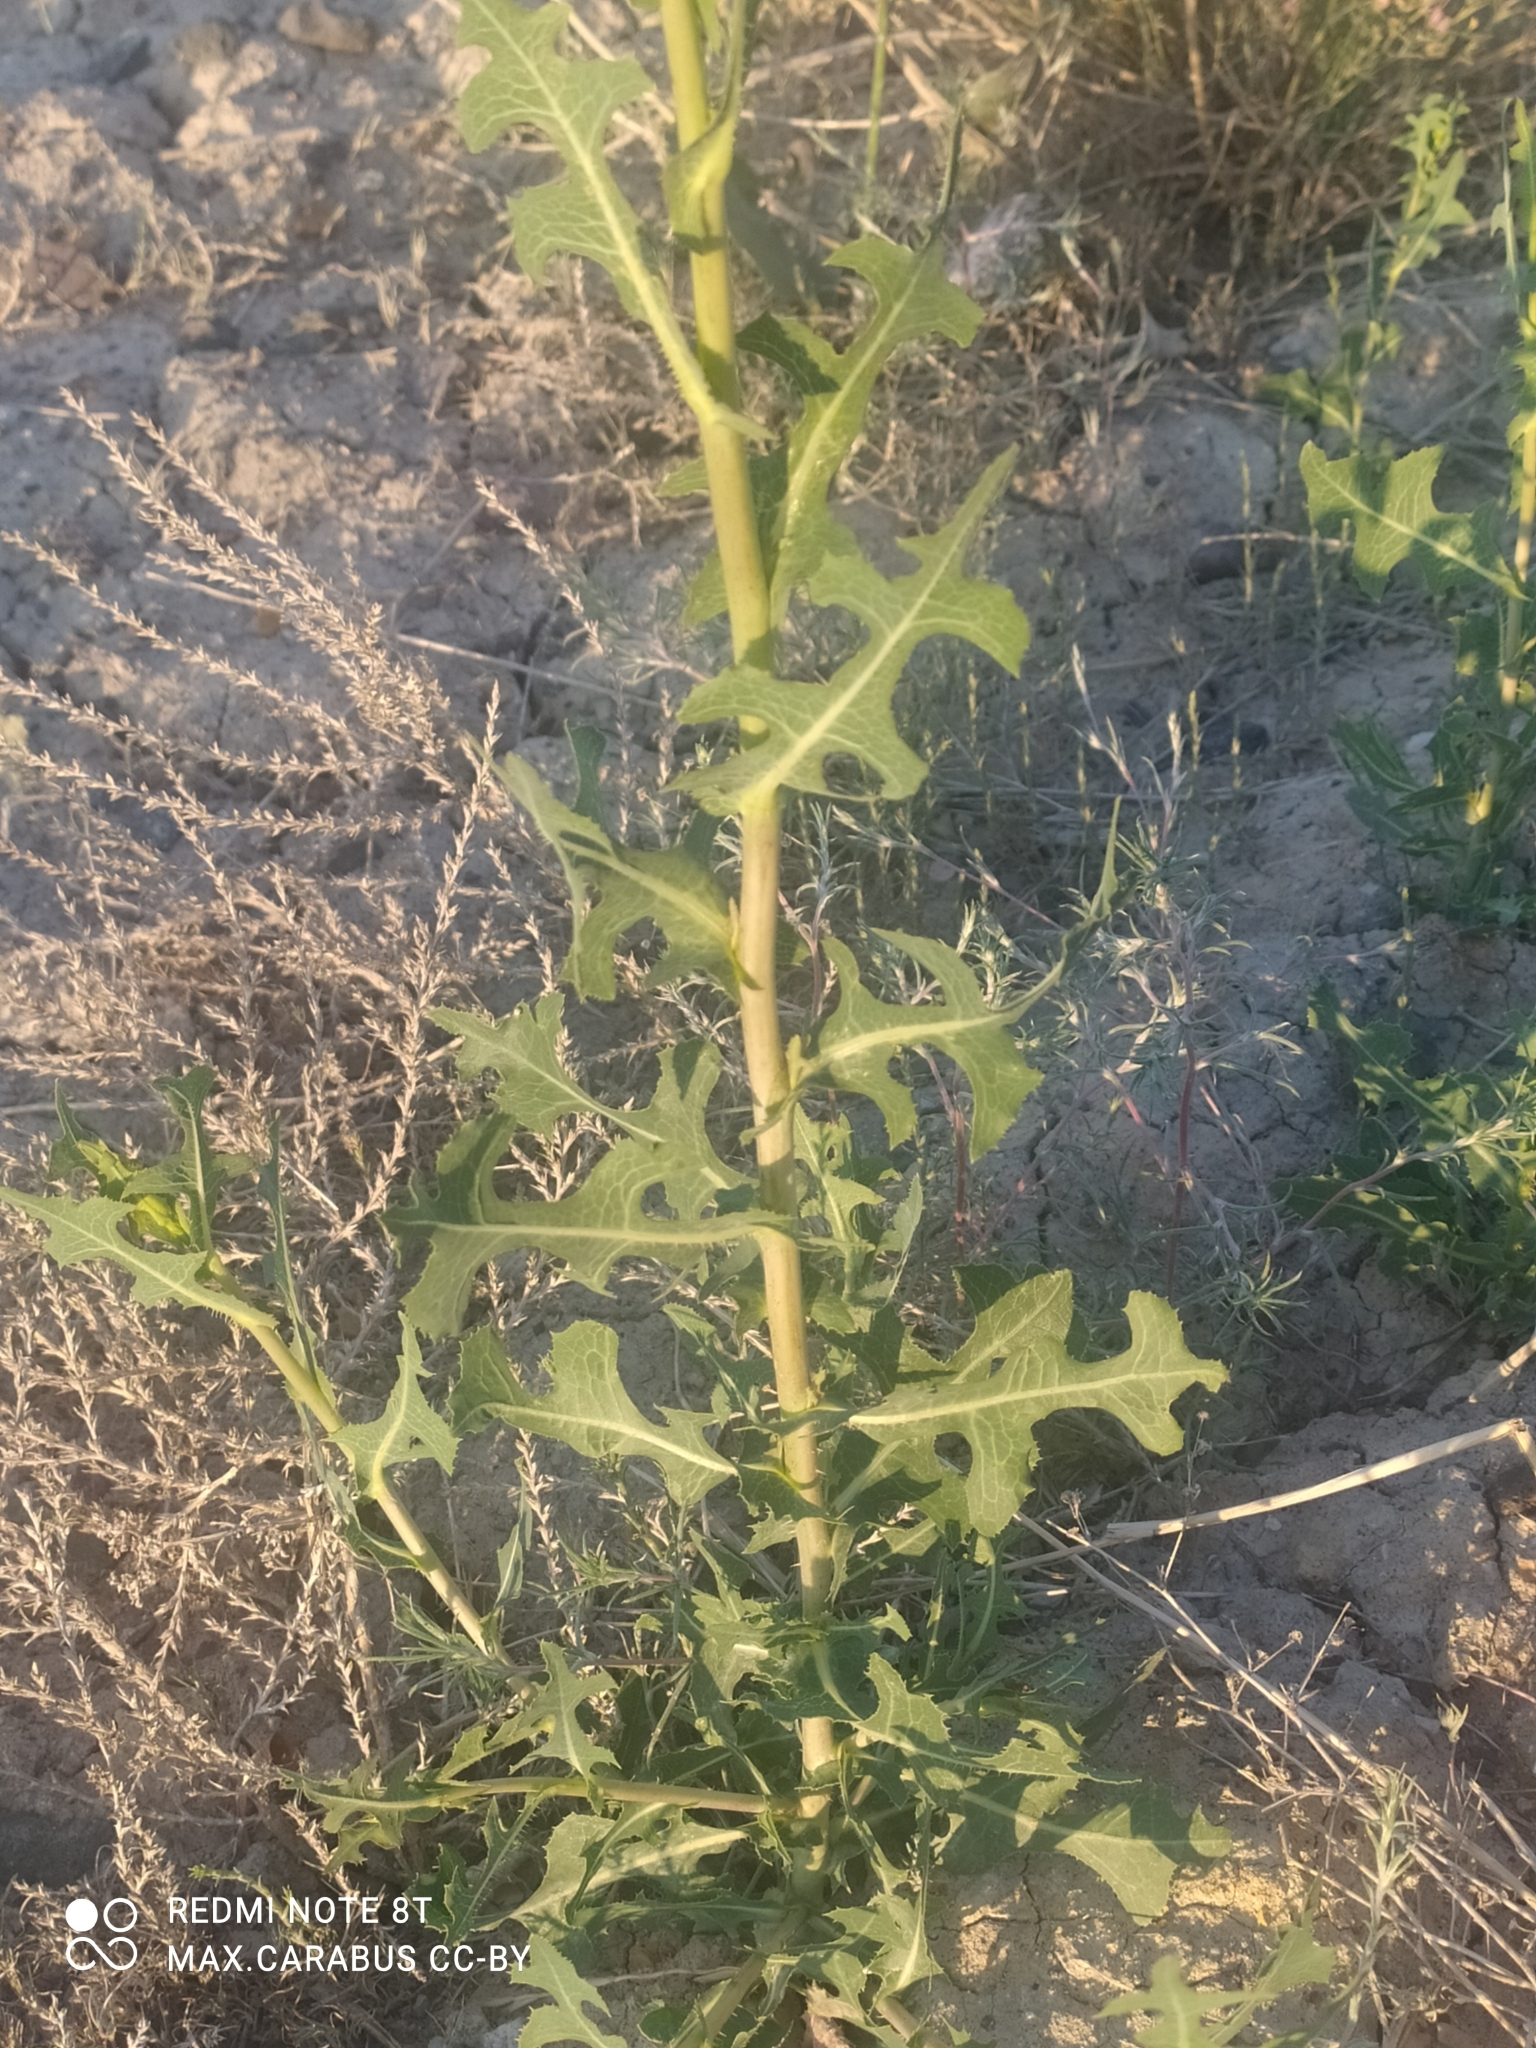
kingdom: Plantae
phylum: Tracheophyta
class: Magnoliopsida
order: Asterales
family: Asteraceae
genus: Lactuca
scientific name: Lactuca serriola
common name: Prickly lettuce
